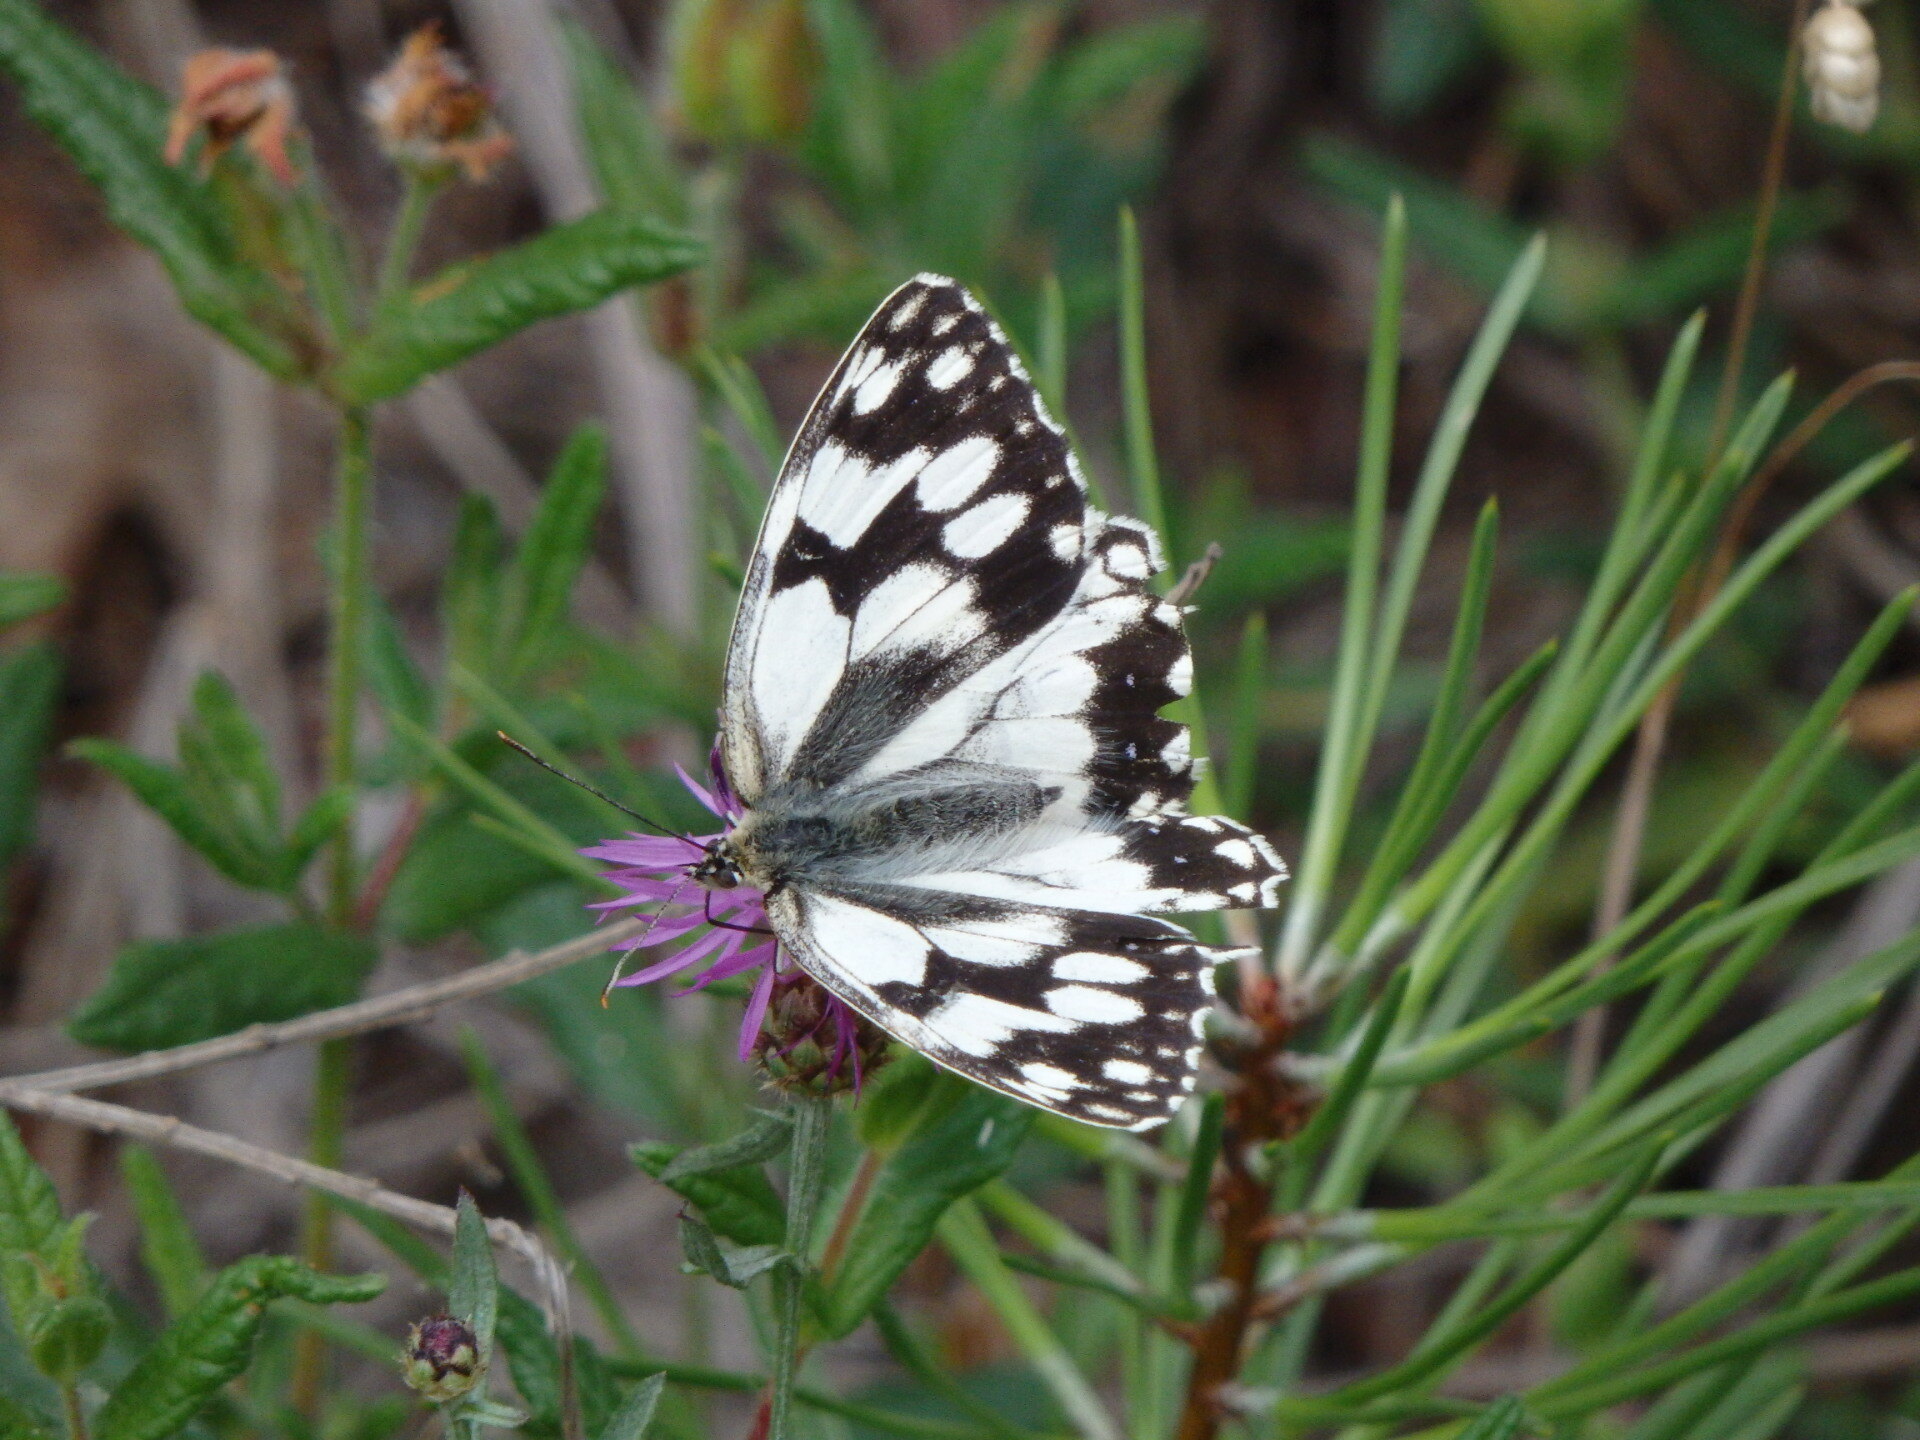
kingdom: Animalia
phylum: Arthropoda
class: Insecta
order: Lepidoptera
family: Nymphalidae
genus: Melanargia
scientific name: Melanargia lachesis
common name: Iberian marbled white
